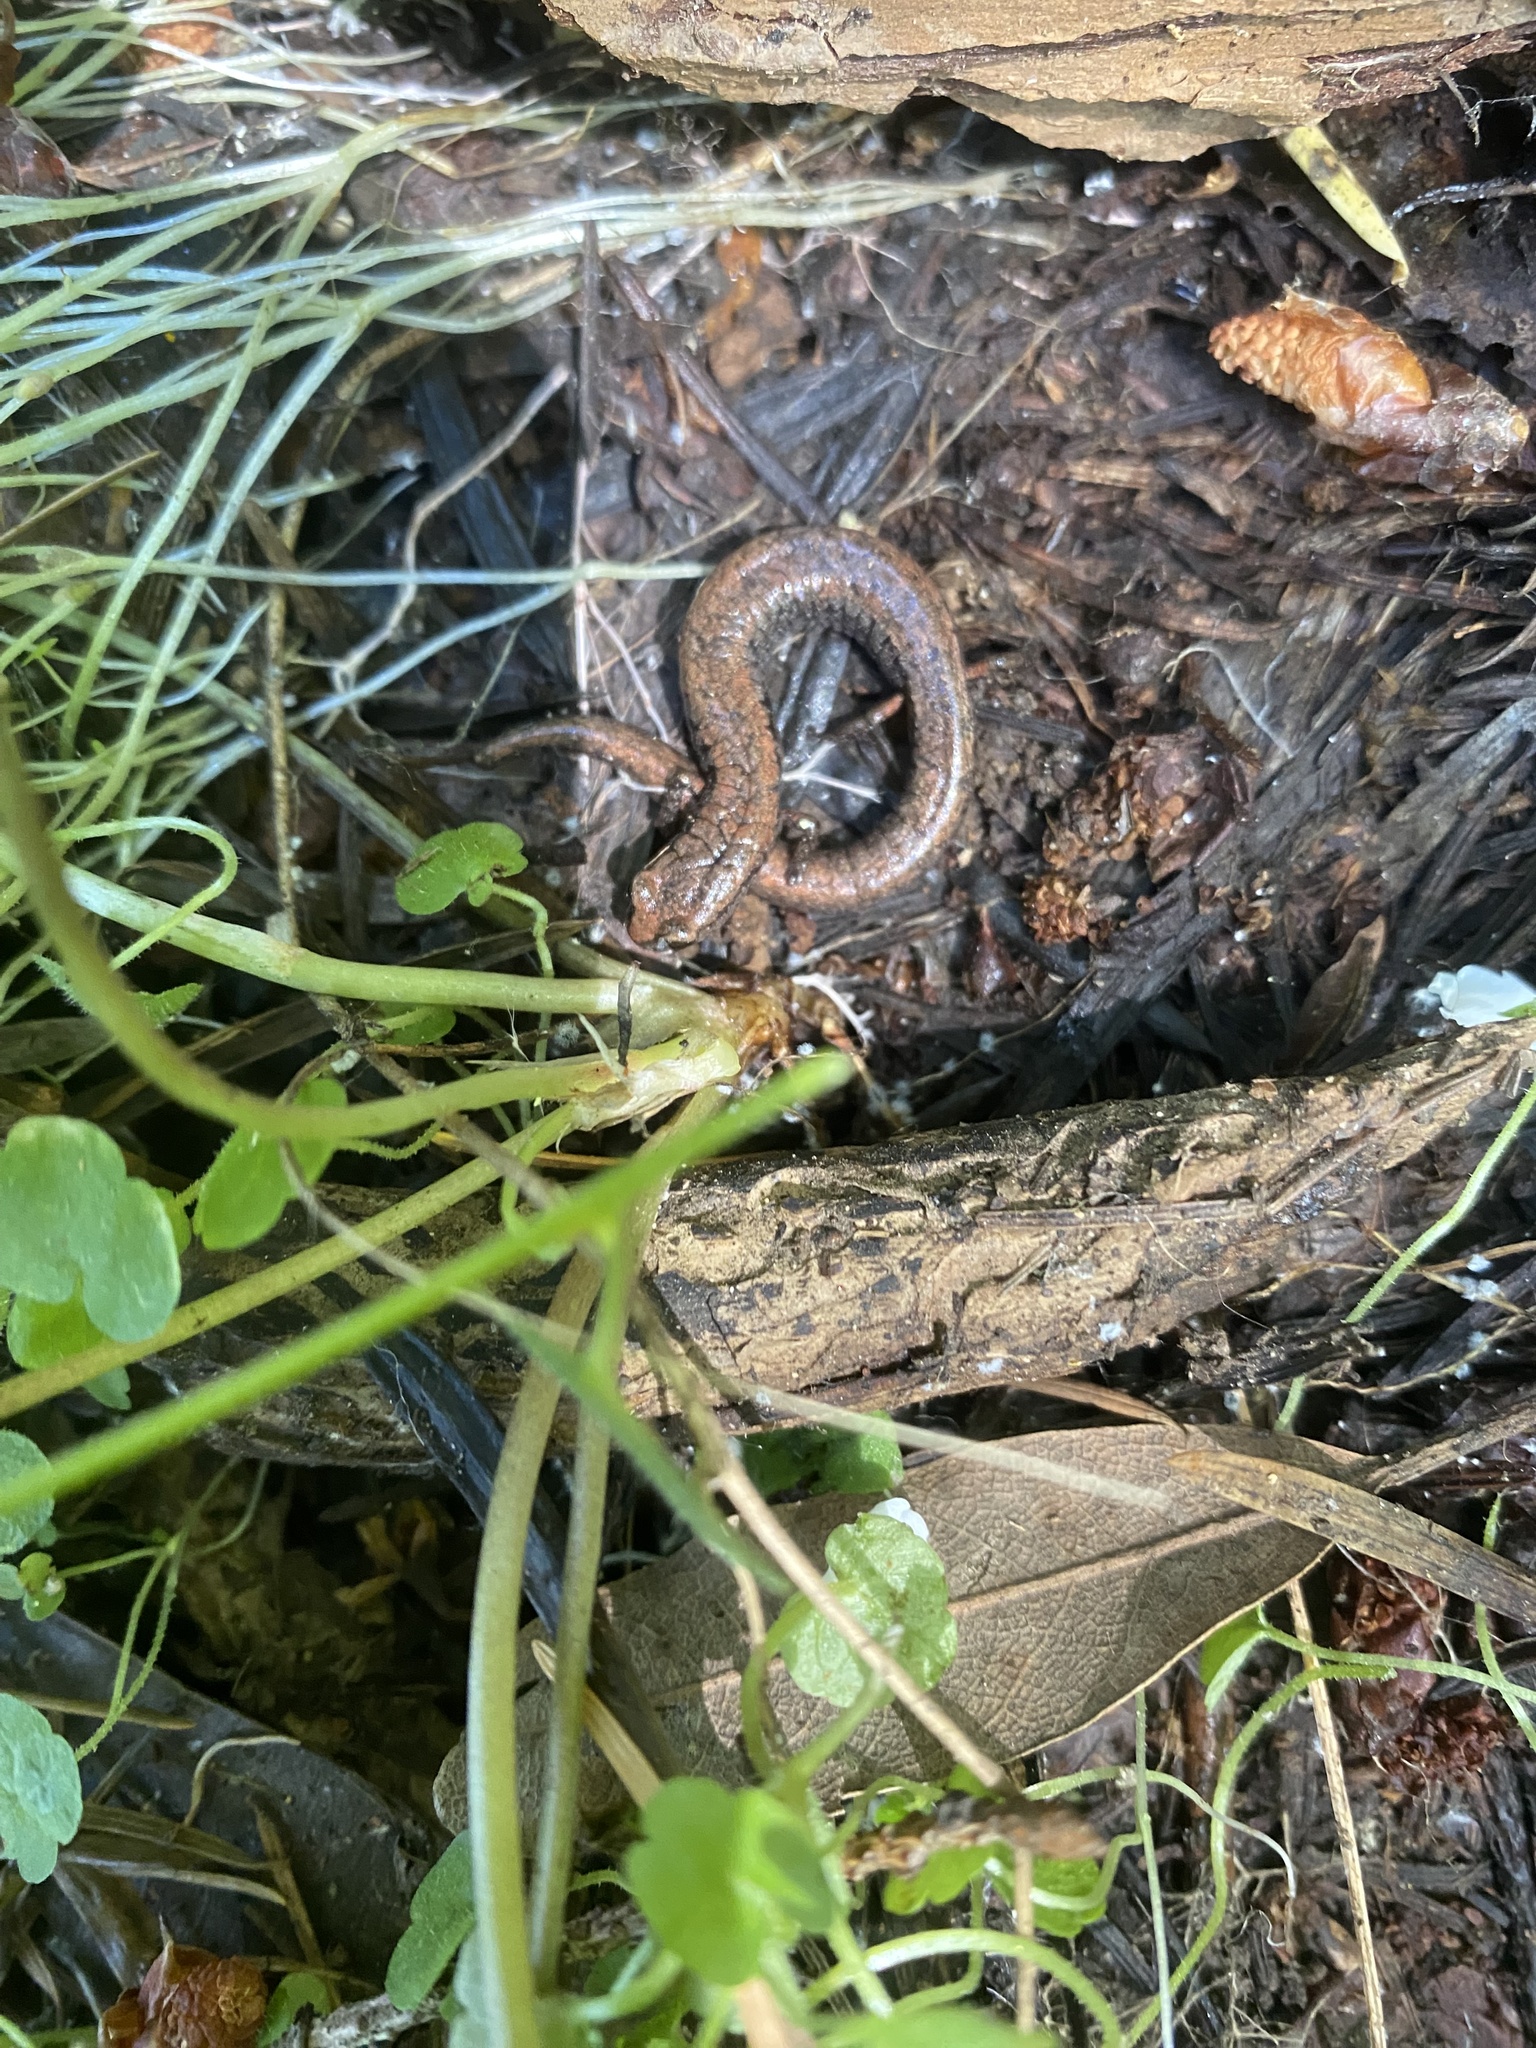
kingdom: Animalia
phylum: Chordata
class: Amphibia
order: Caudata
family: Plethodontidae
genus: Batrachoseps
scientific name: Batrachoseps attenuatus
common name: California slender salamander
